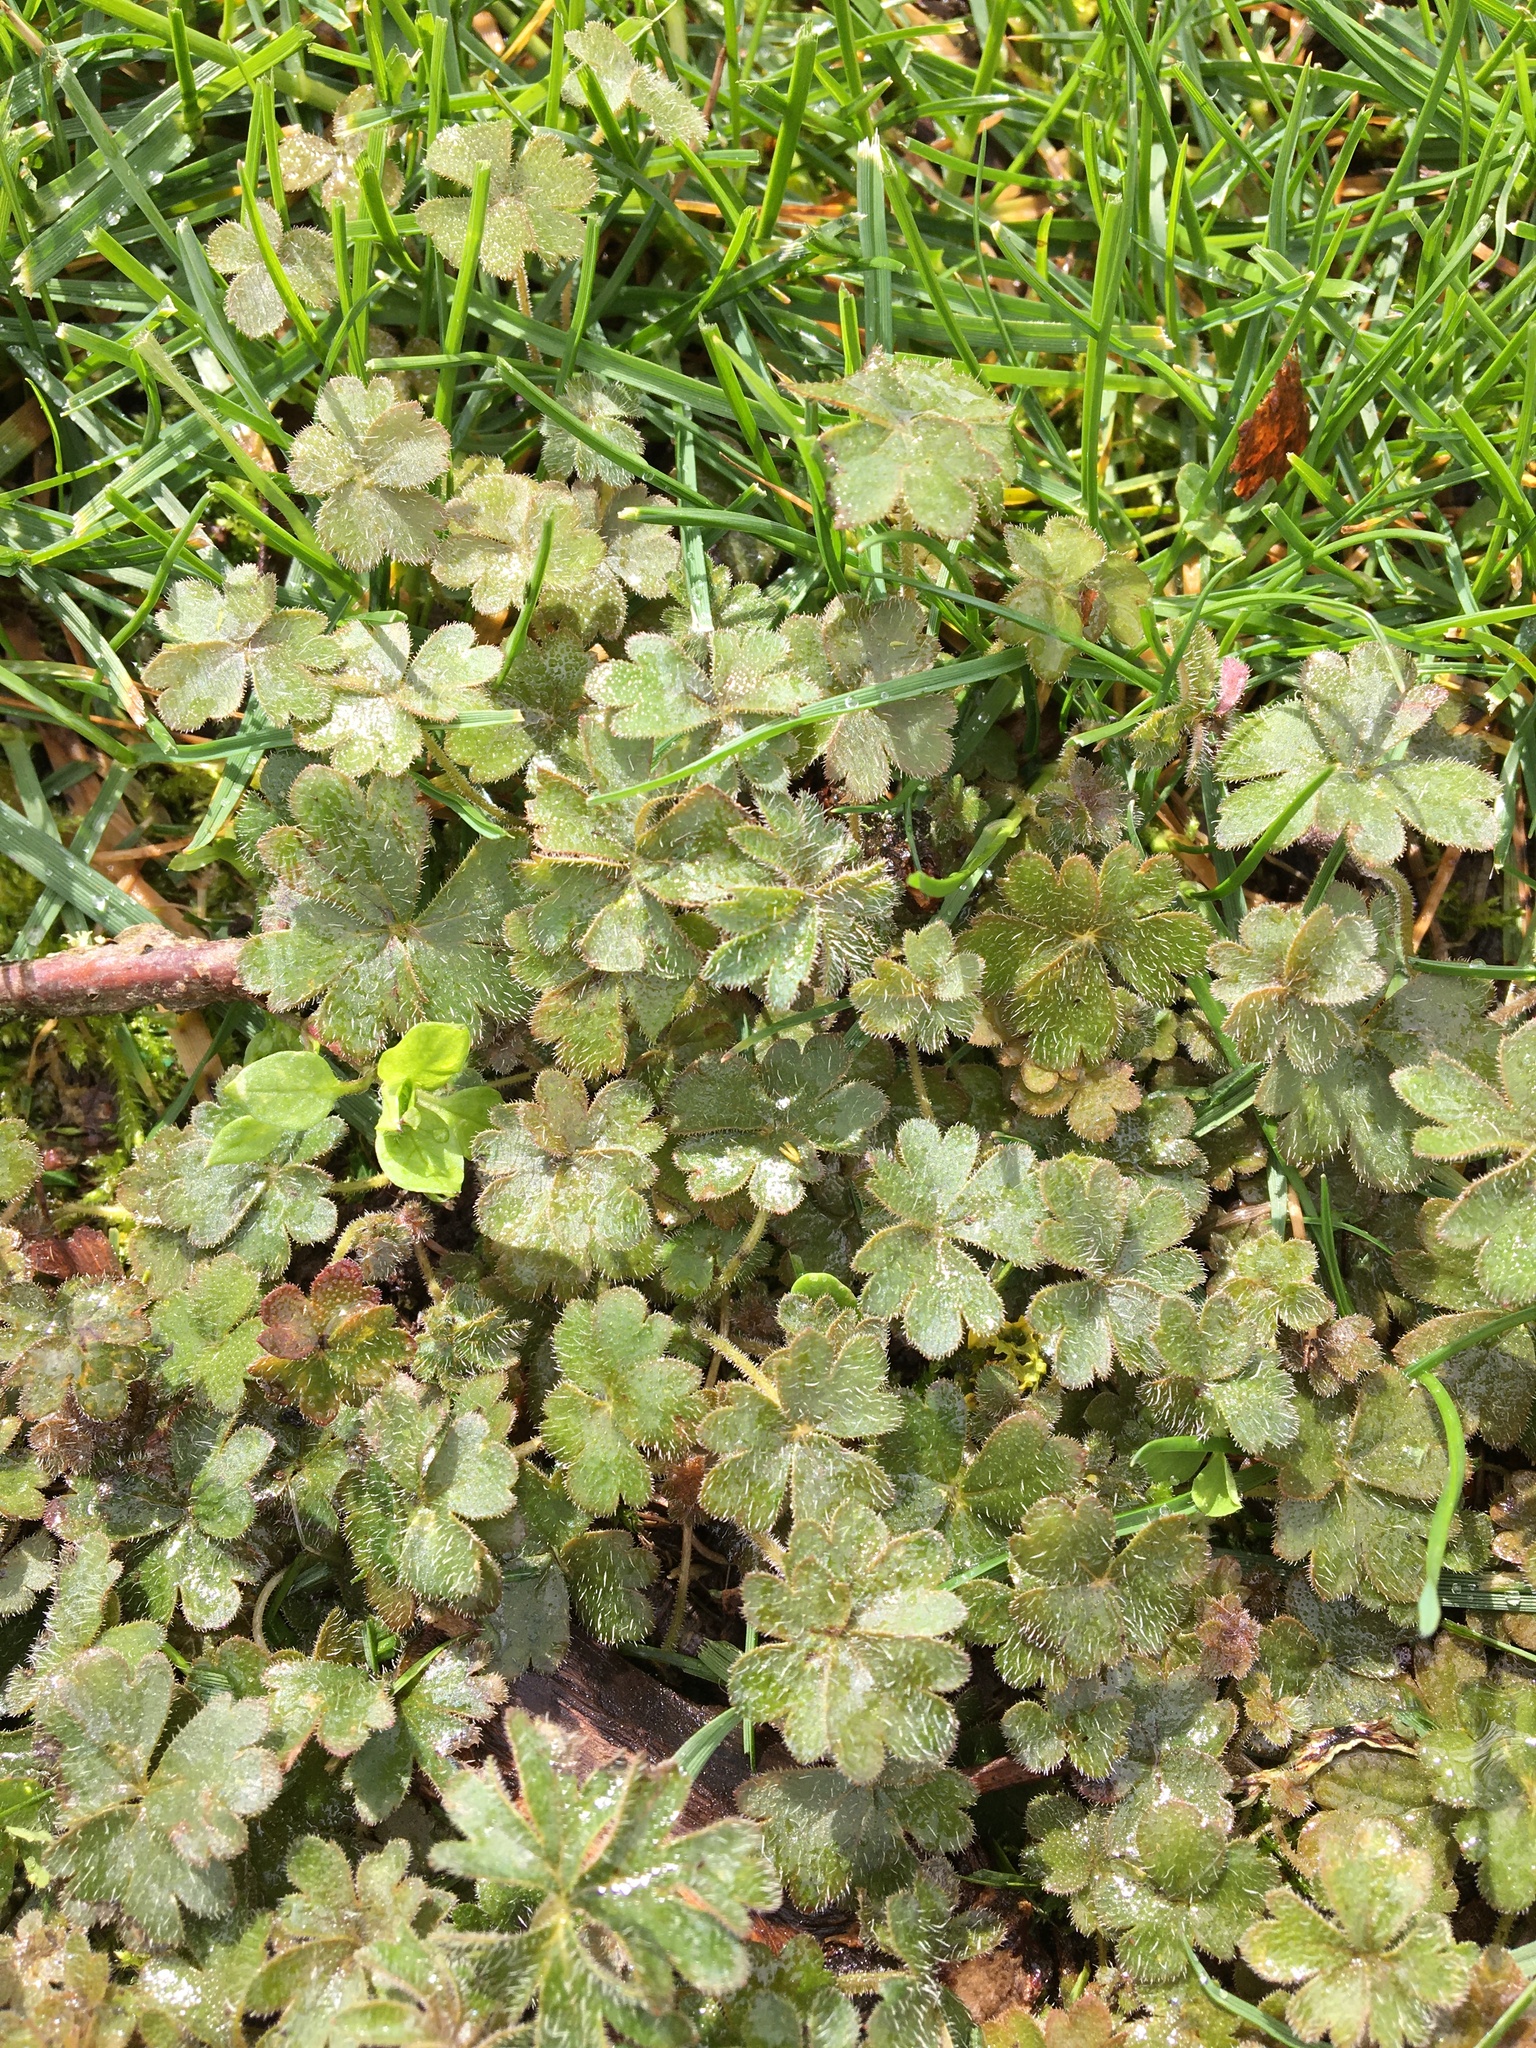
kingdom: Plantae
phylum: Tracheophyta
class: Magnoliopsida
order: Saxifragales
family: Saxifragaceae
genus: Lithophragma
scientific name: Lithophragma parviflorum
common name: Small-flowered fringe-cup
